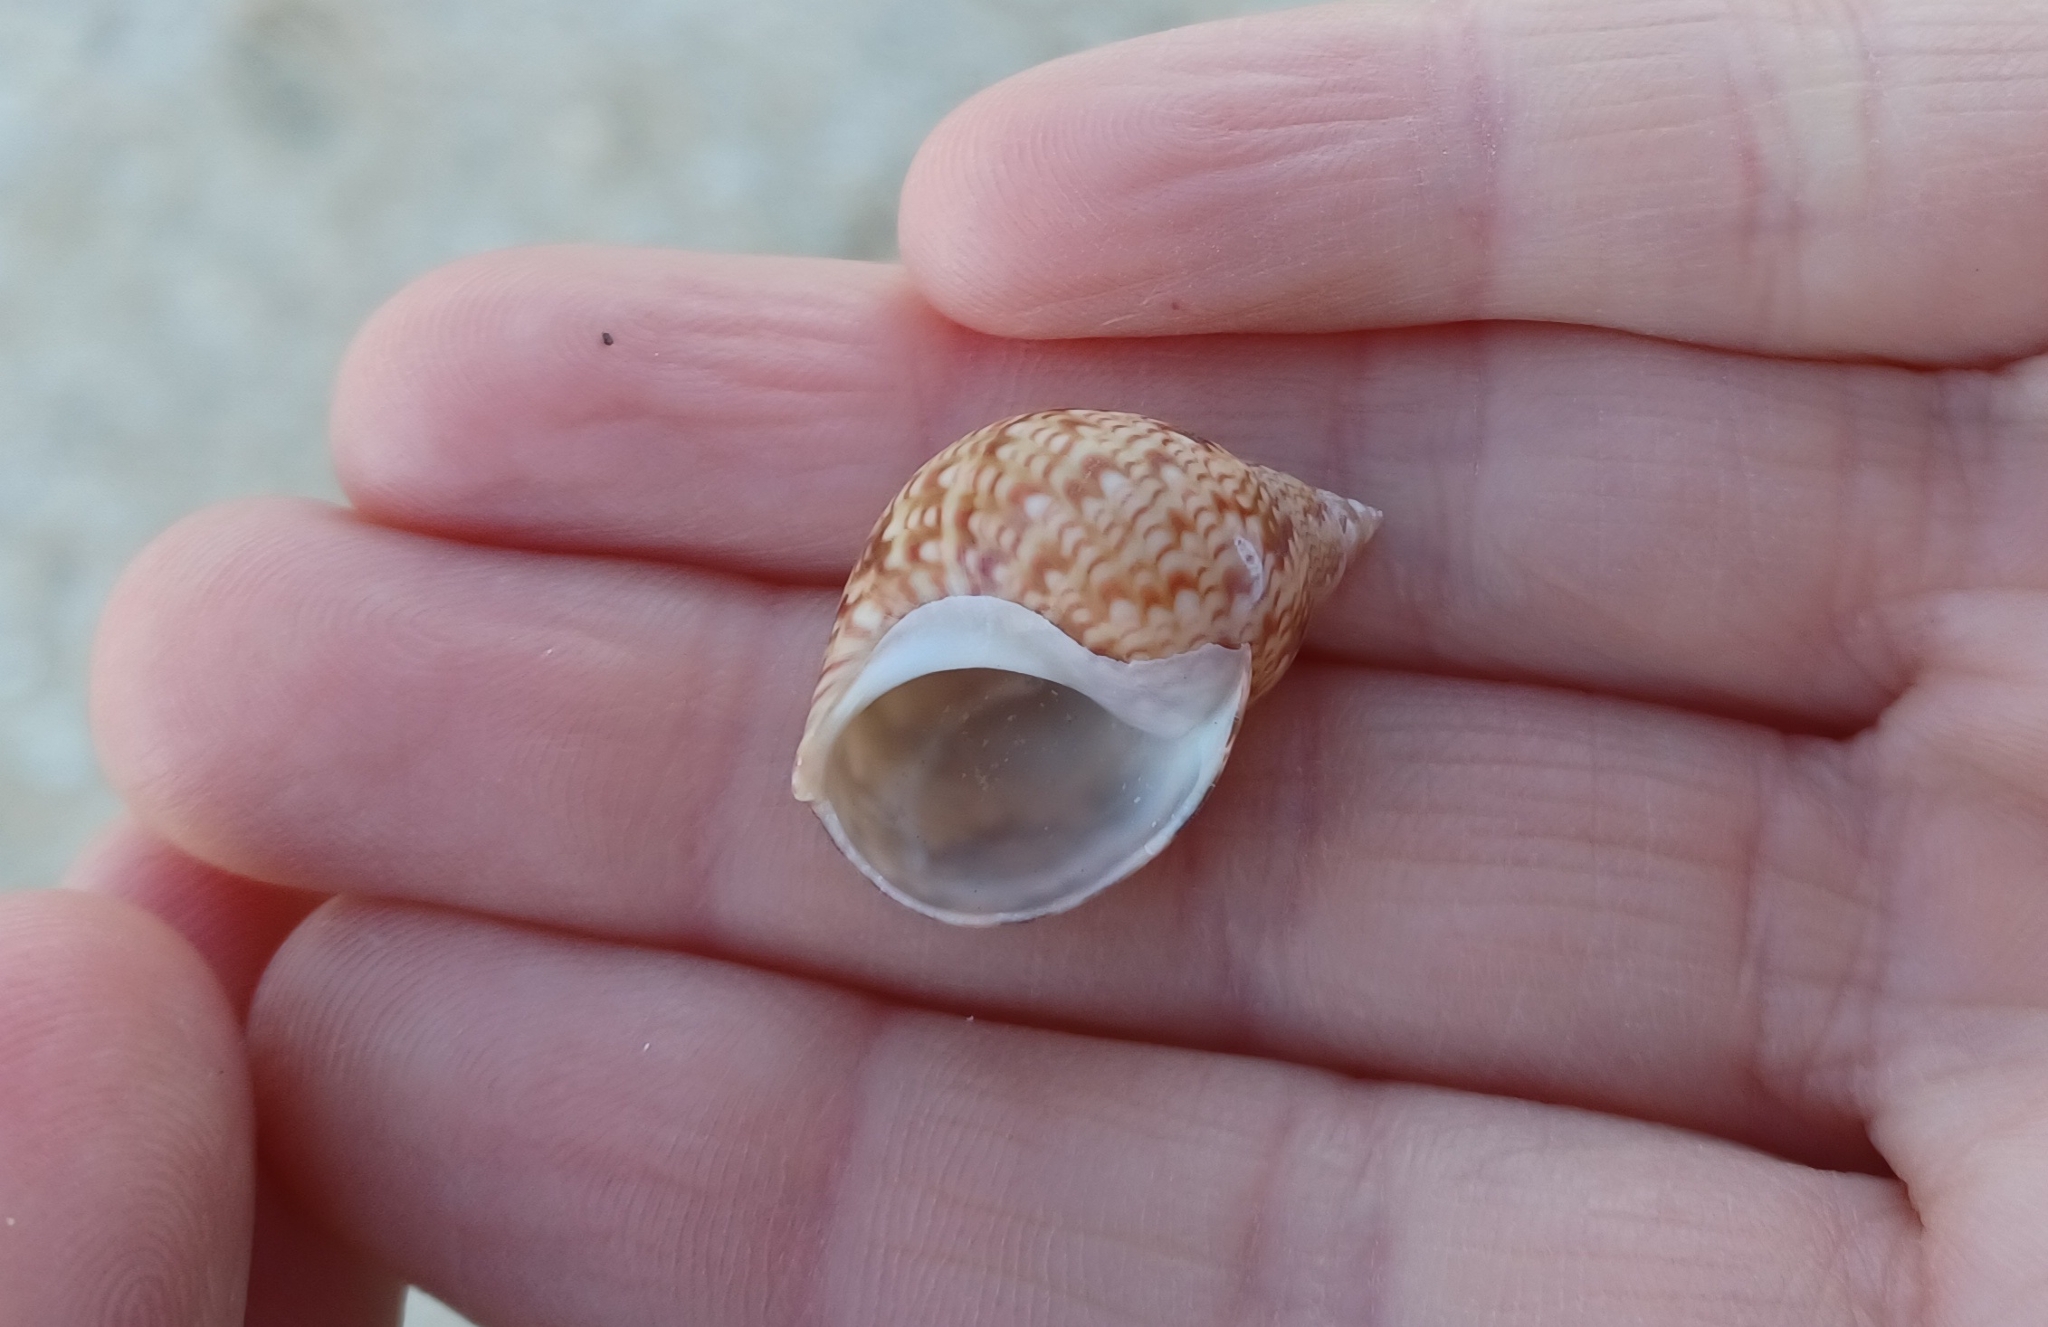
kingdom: Animalia
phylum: Mollusca
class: Gastropoda
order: Trochida
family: Phasianellidae
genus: Phasianella
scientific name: Phasianella australis
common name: Painted lady
